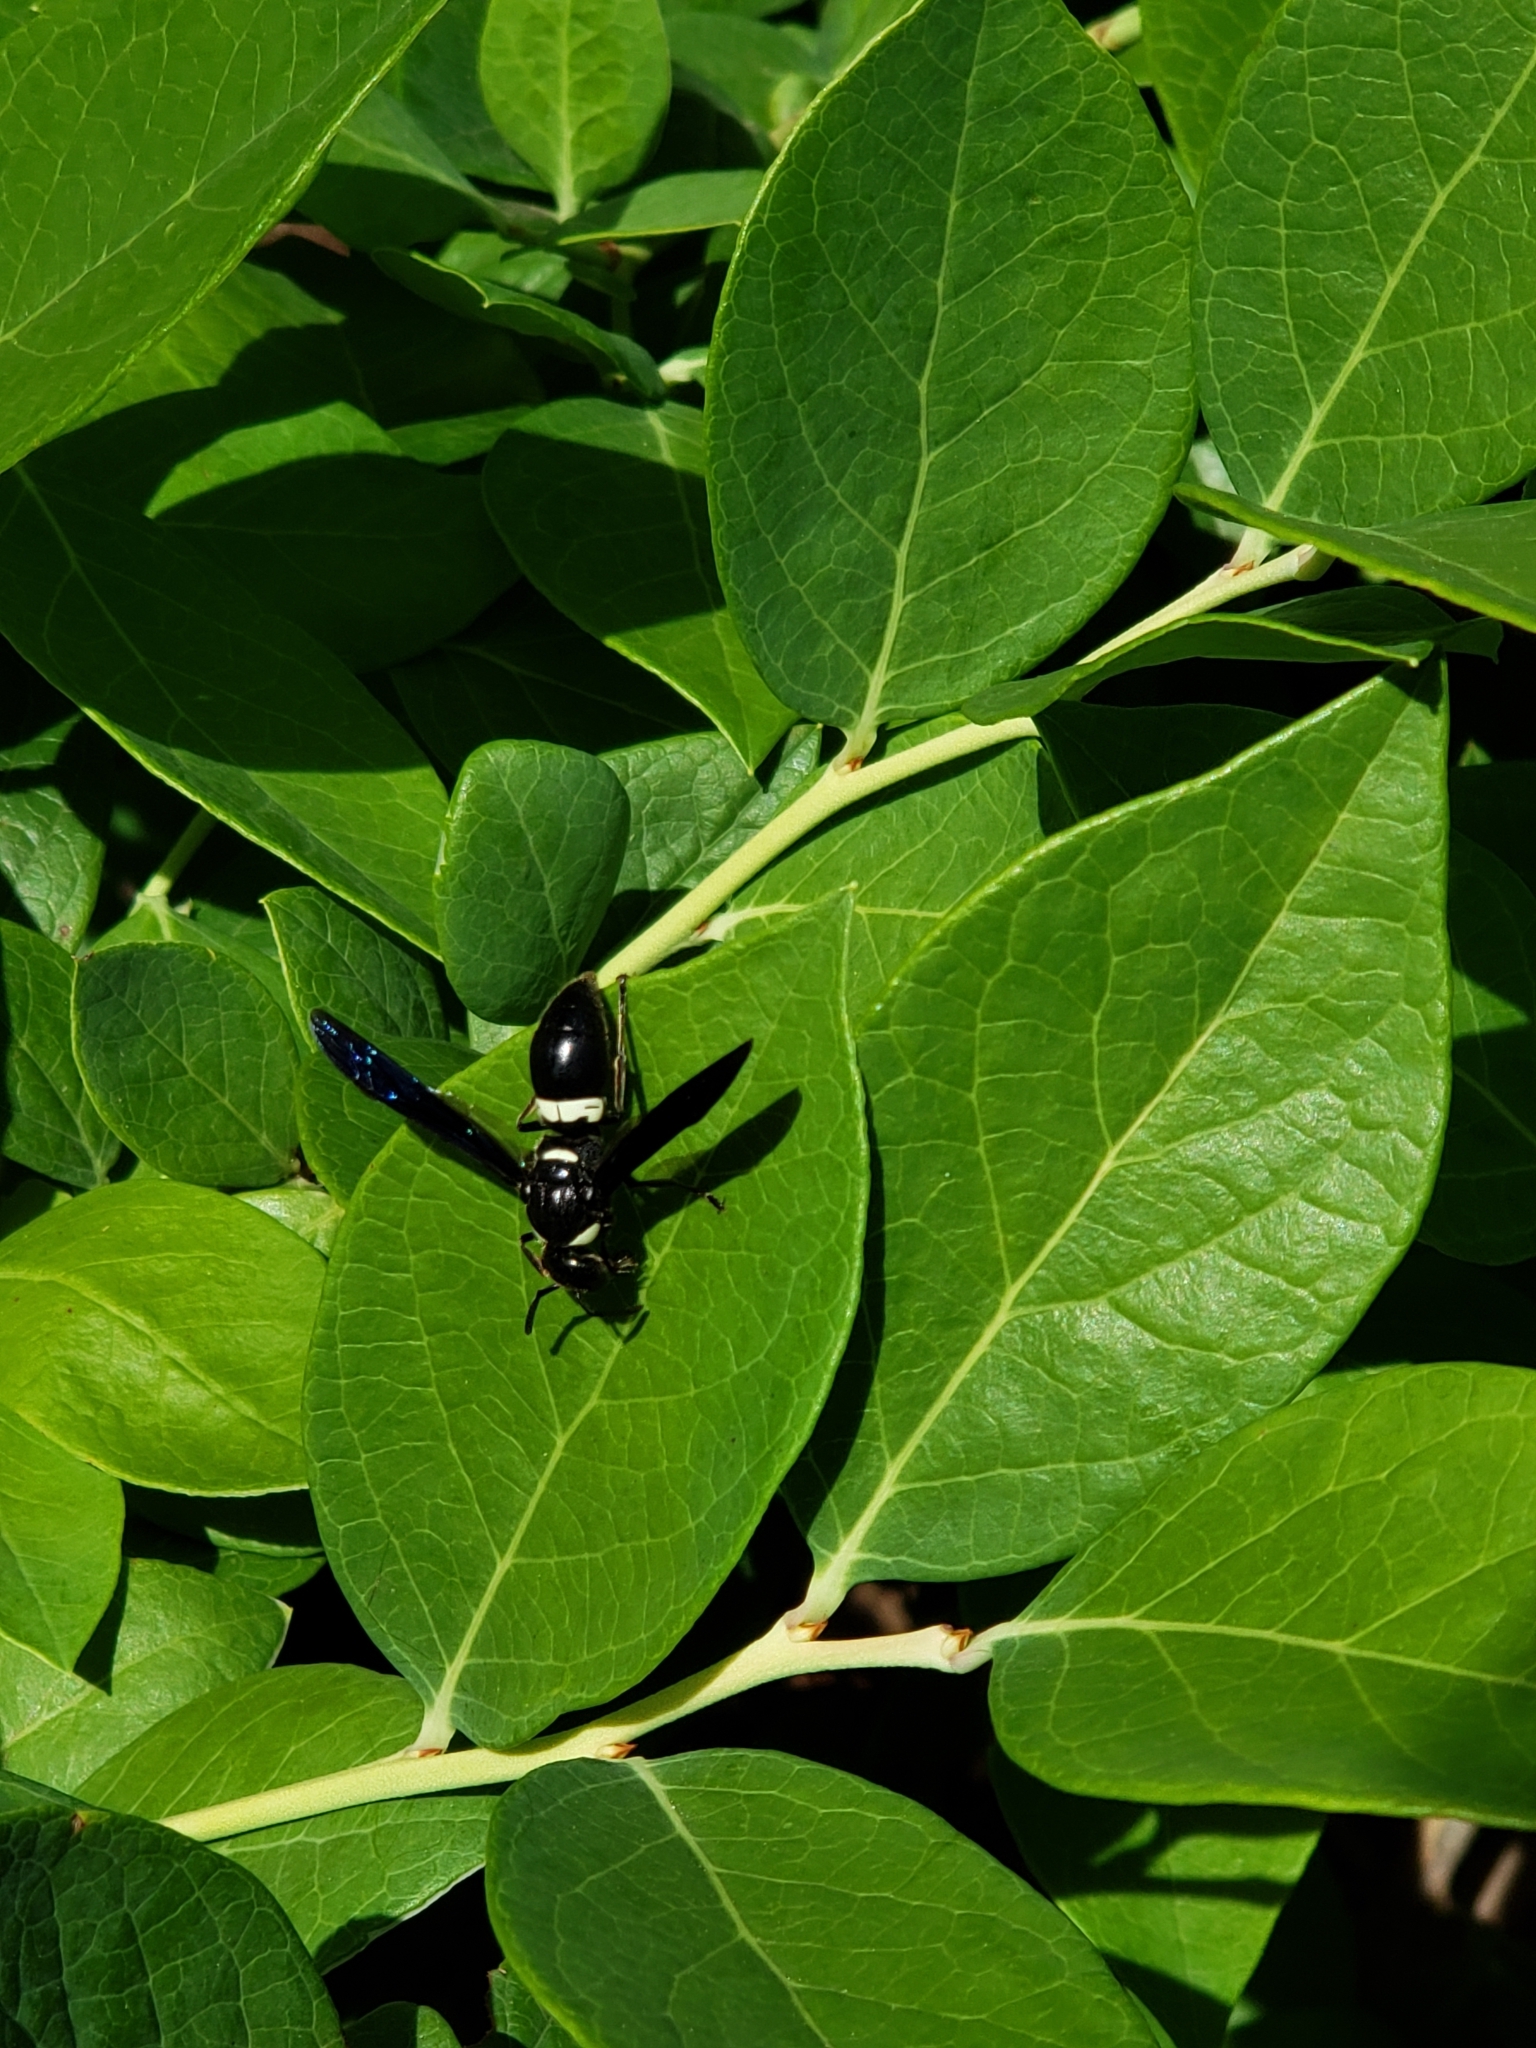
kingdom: Animalia
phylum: Arthropoda
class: Insecta
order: Hymenoptera
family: Eumenidae
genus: Monobia
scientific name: Monobia quadridens
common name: Four-toothed mason wasp
